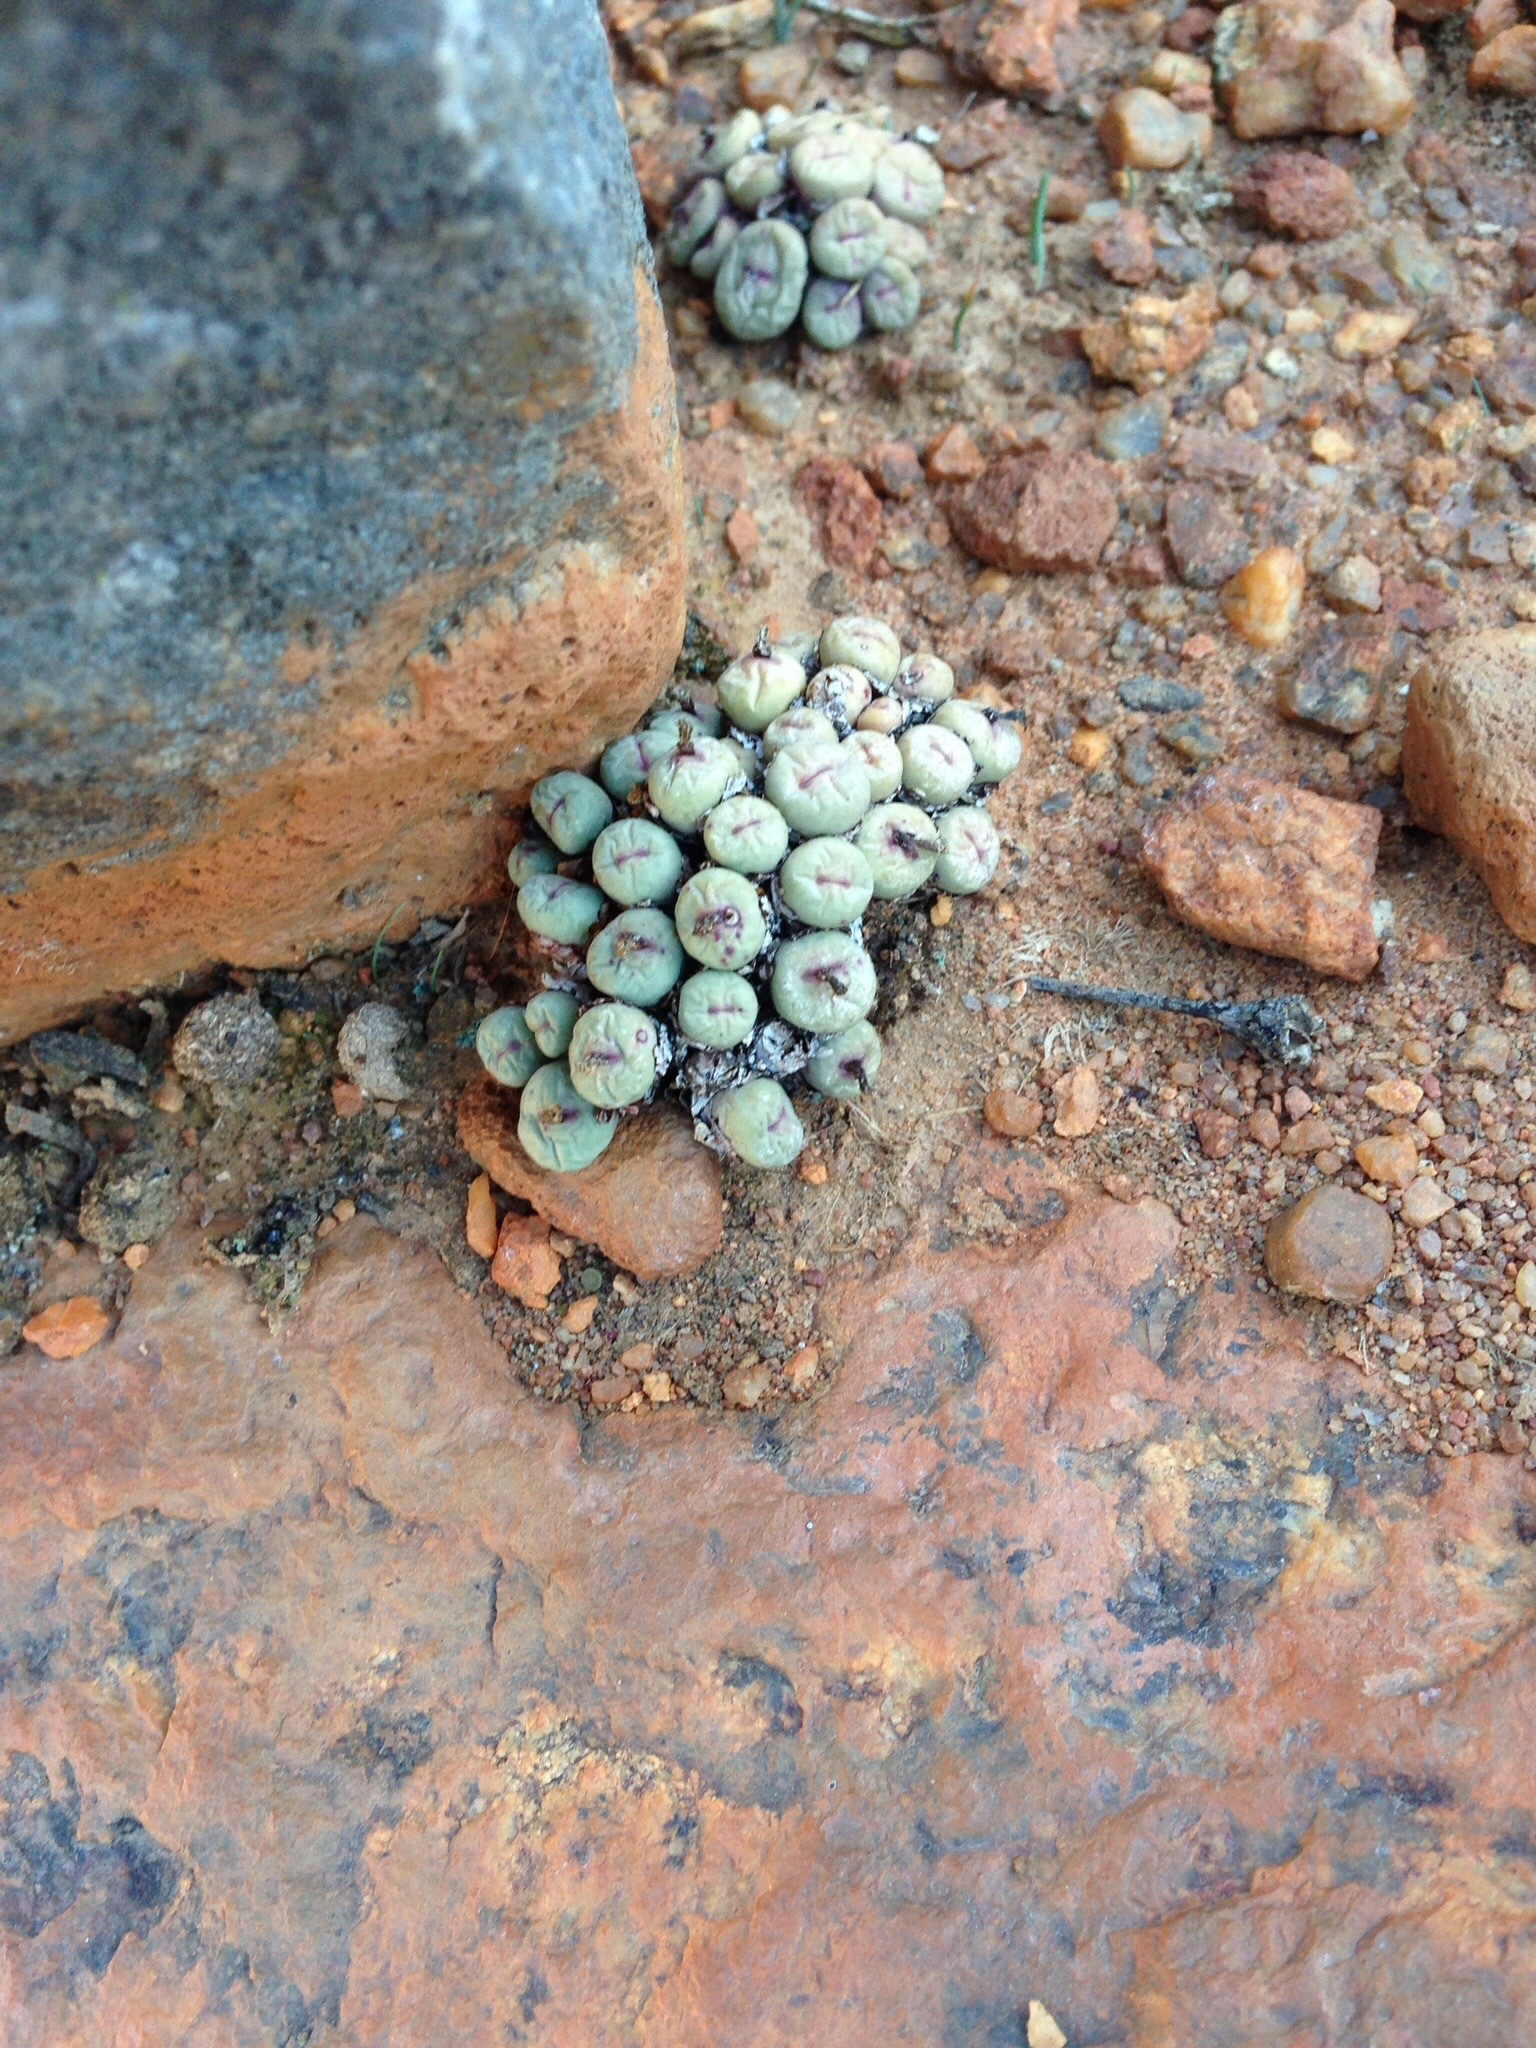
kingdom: Plantae
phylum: Tracheophyta
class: Magnoliopsida
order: Caryophyllales
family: Aizoaceae
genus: Conophytum
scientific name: Conophytum pageae
